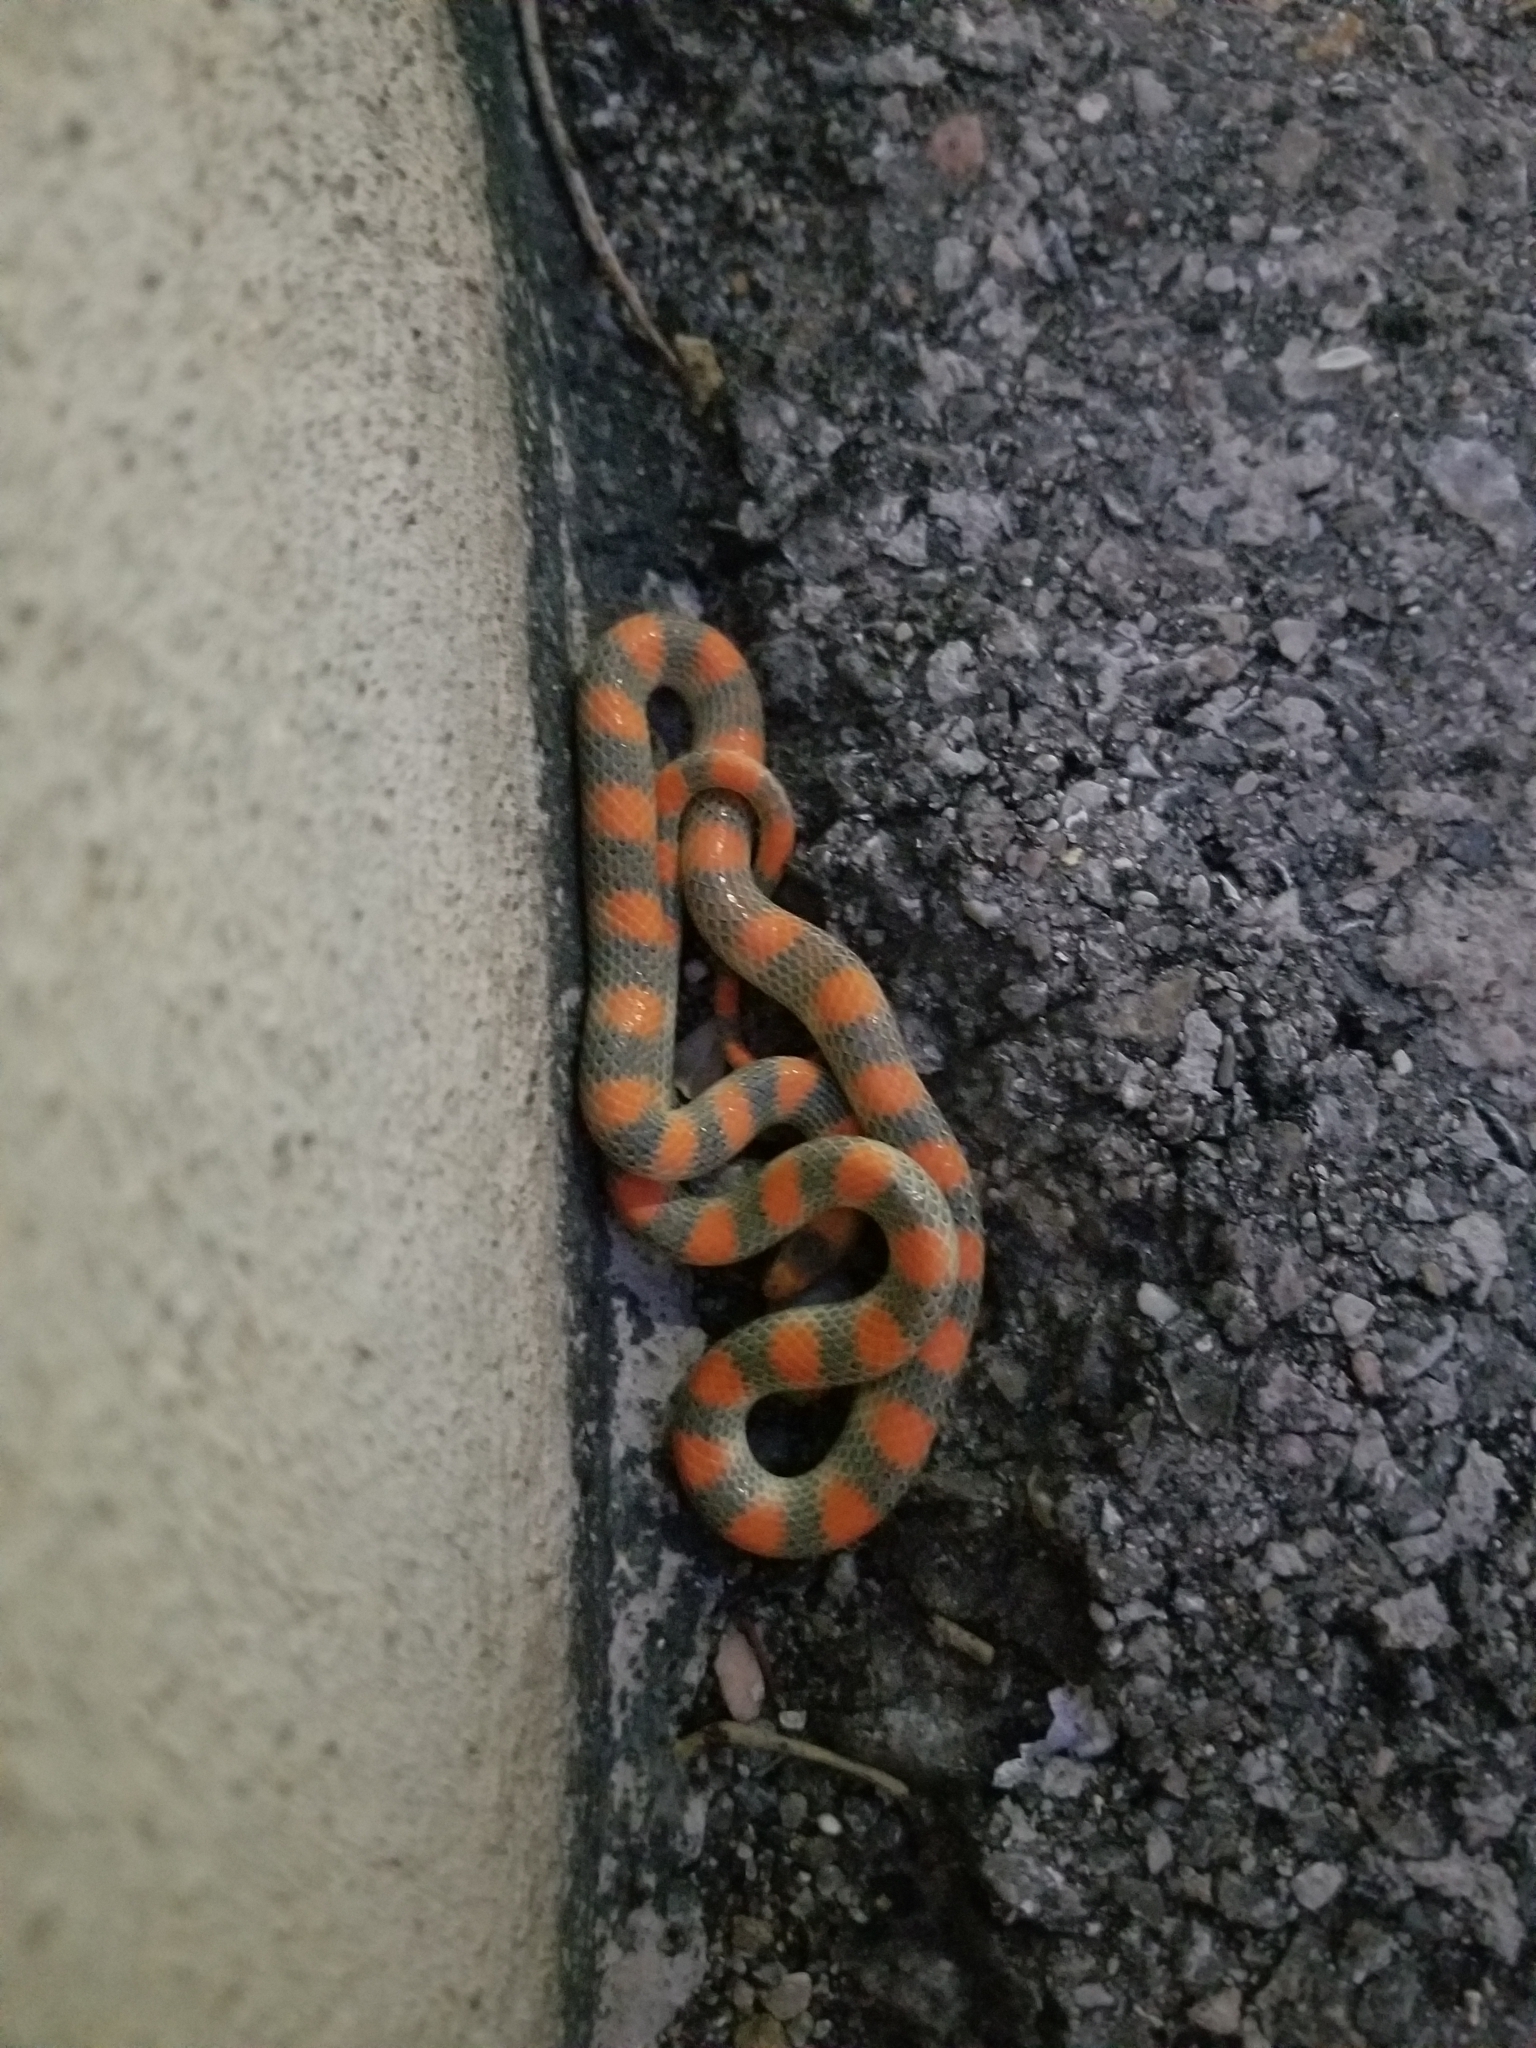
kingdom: Animalia
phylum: Chordata
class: Squamata
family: Colubridae
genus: Sonora
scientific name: Sonora semiannulata
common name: Ground snake
